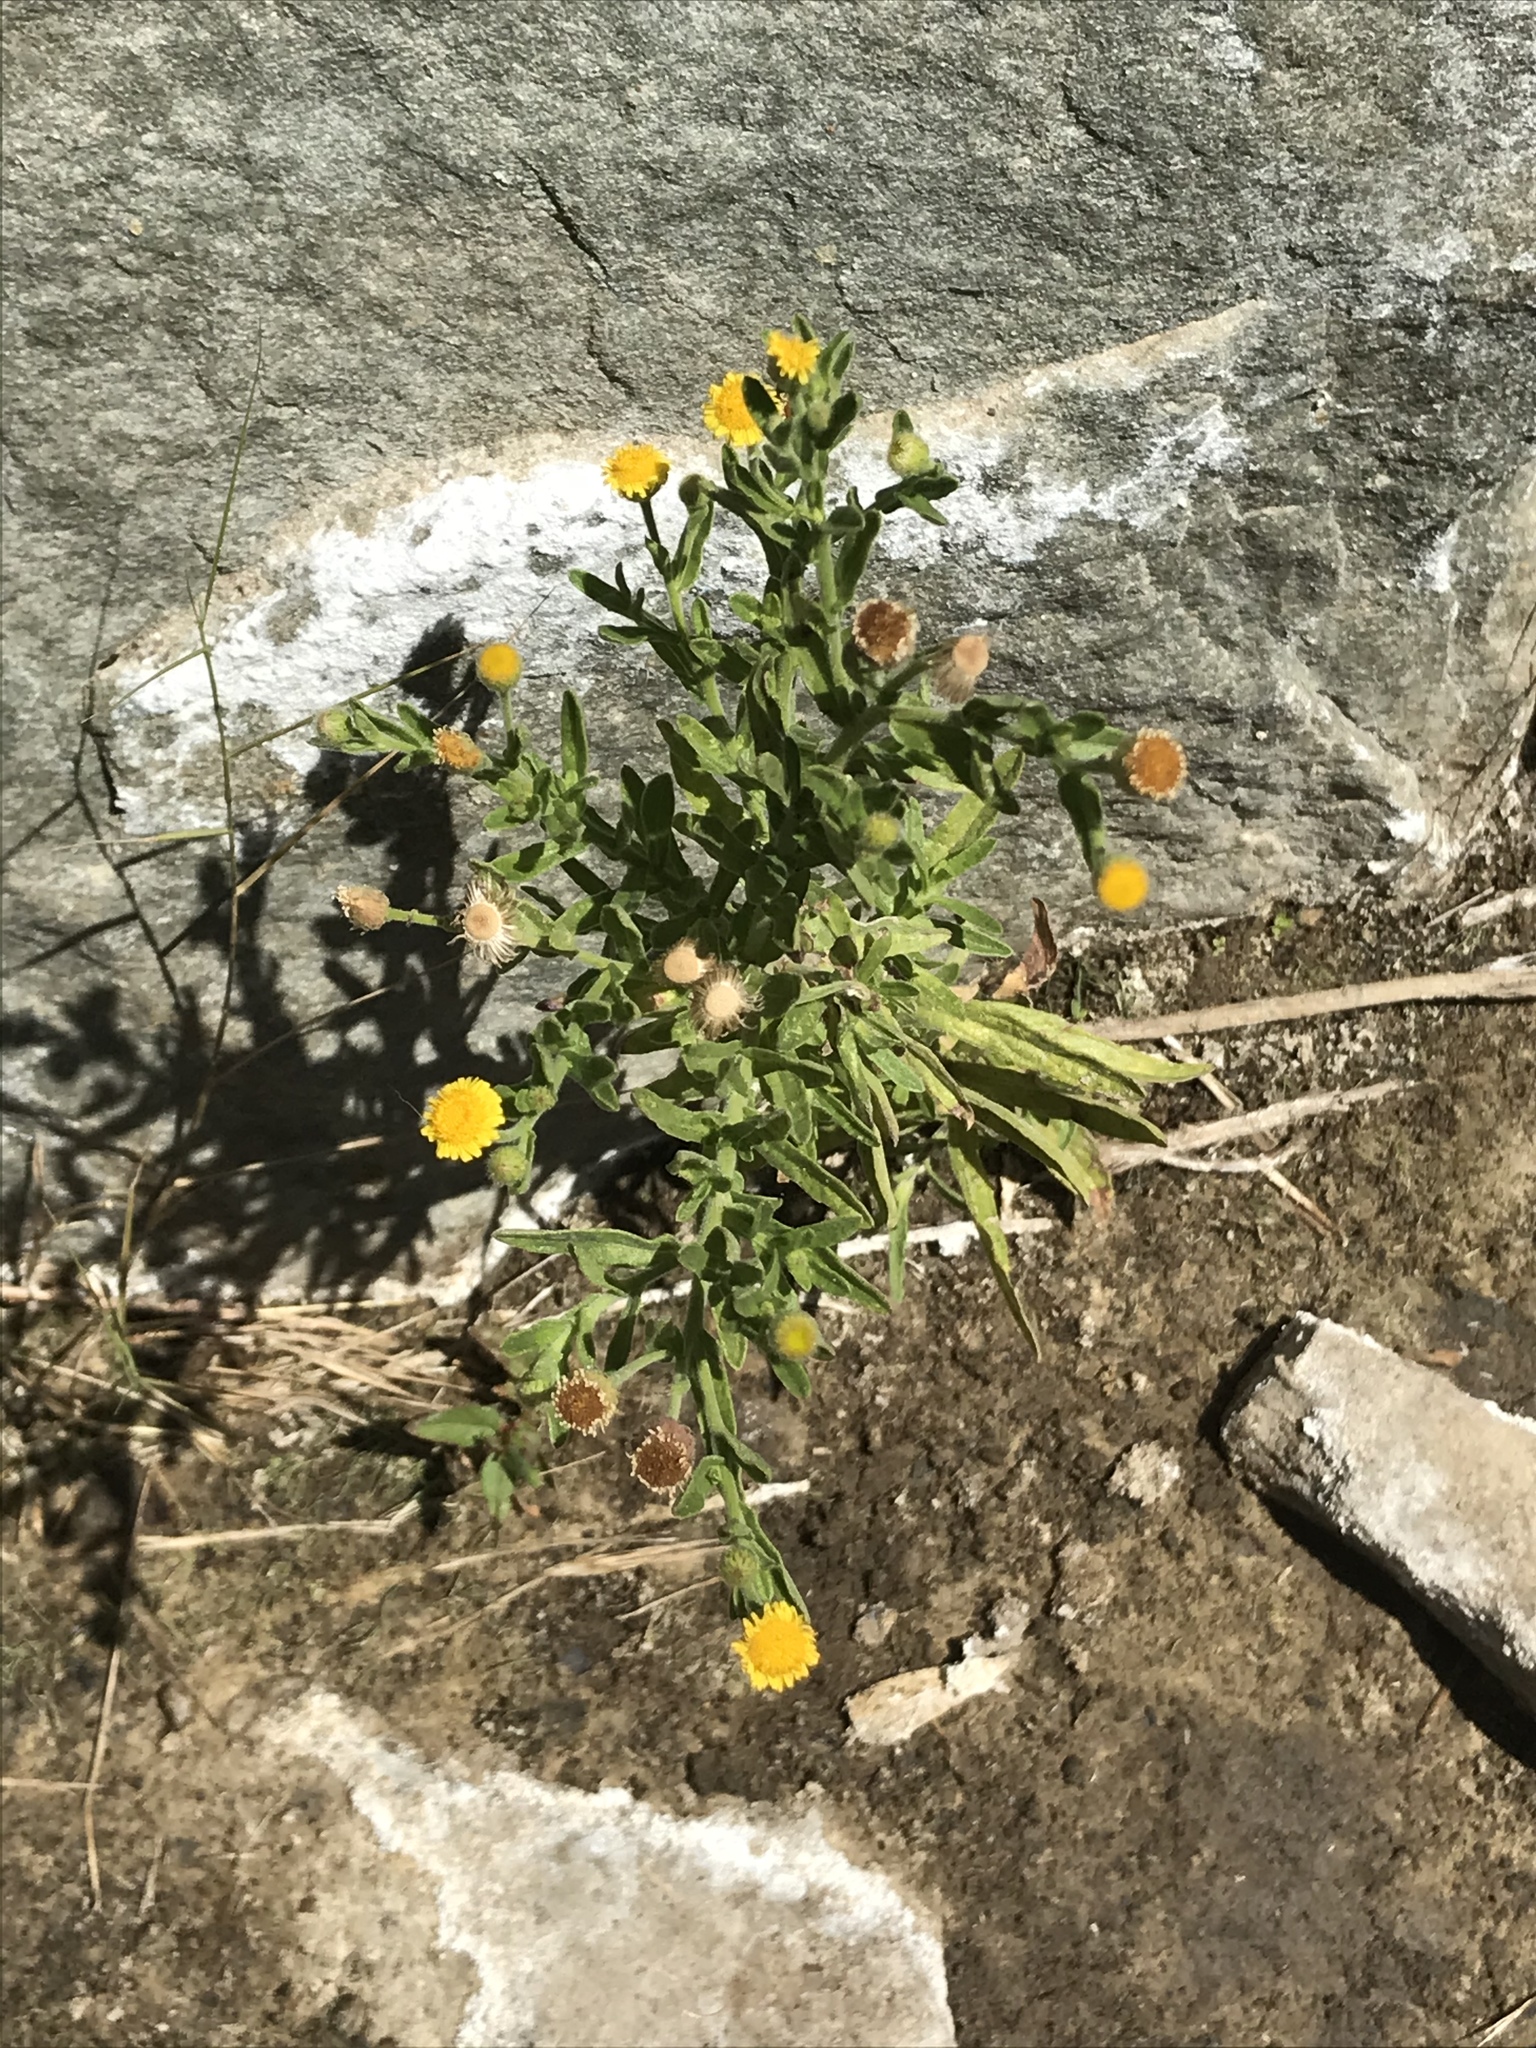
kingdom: Plantae
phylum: Tracheophyta
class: Magnoliopsida
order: Asterales
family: Asteraceae
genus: Pulicaria
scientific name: Pulicaria paludosa
